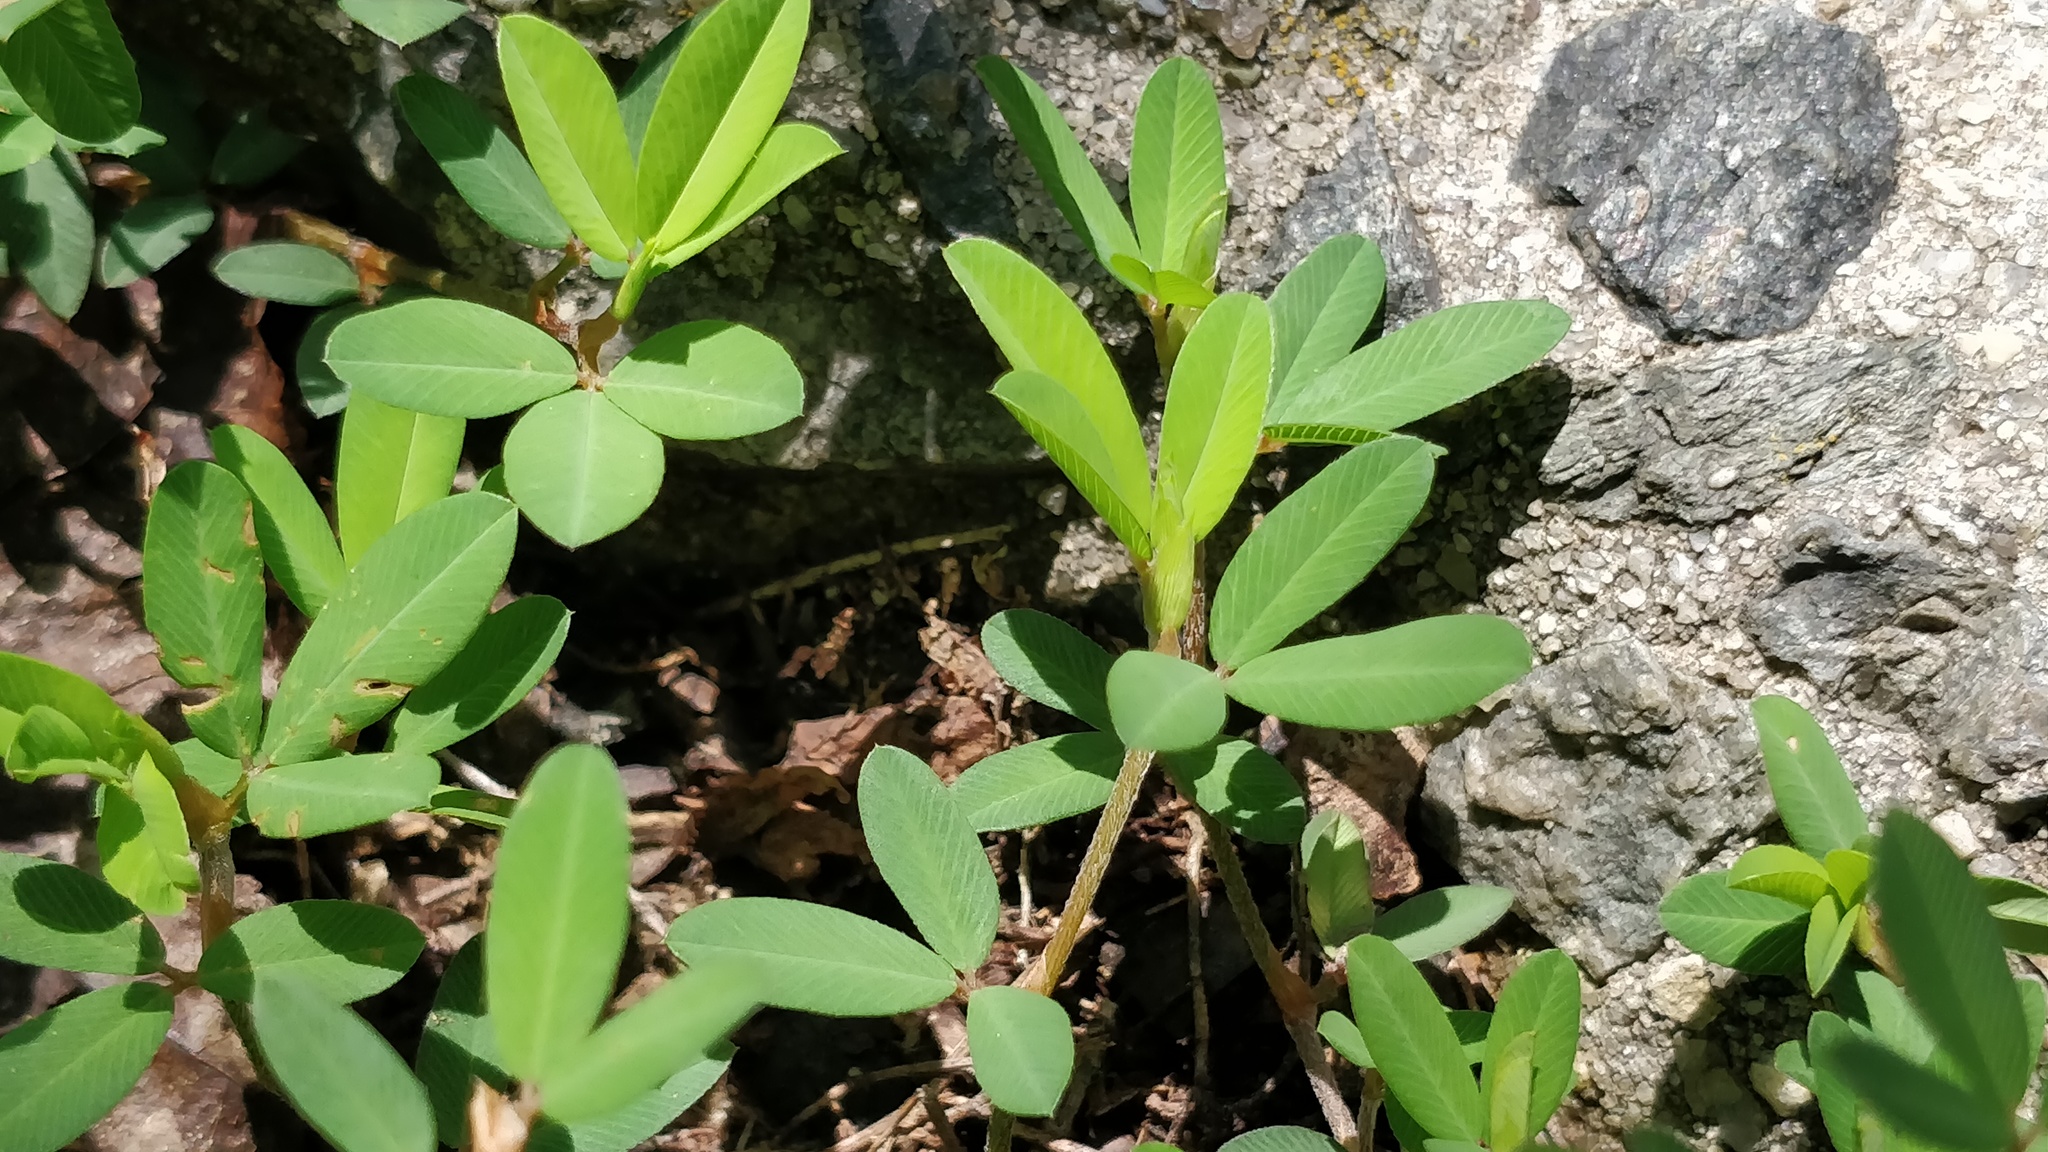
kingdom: Plantae
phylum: Tracheophyta
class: Magnoliopsida
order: Fabales
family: Fabaceae
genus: Kummerowia
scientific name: Kummerowia striata
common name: Japanese clover
